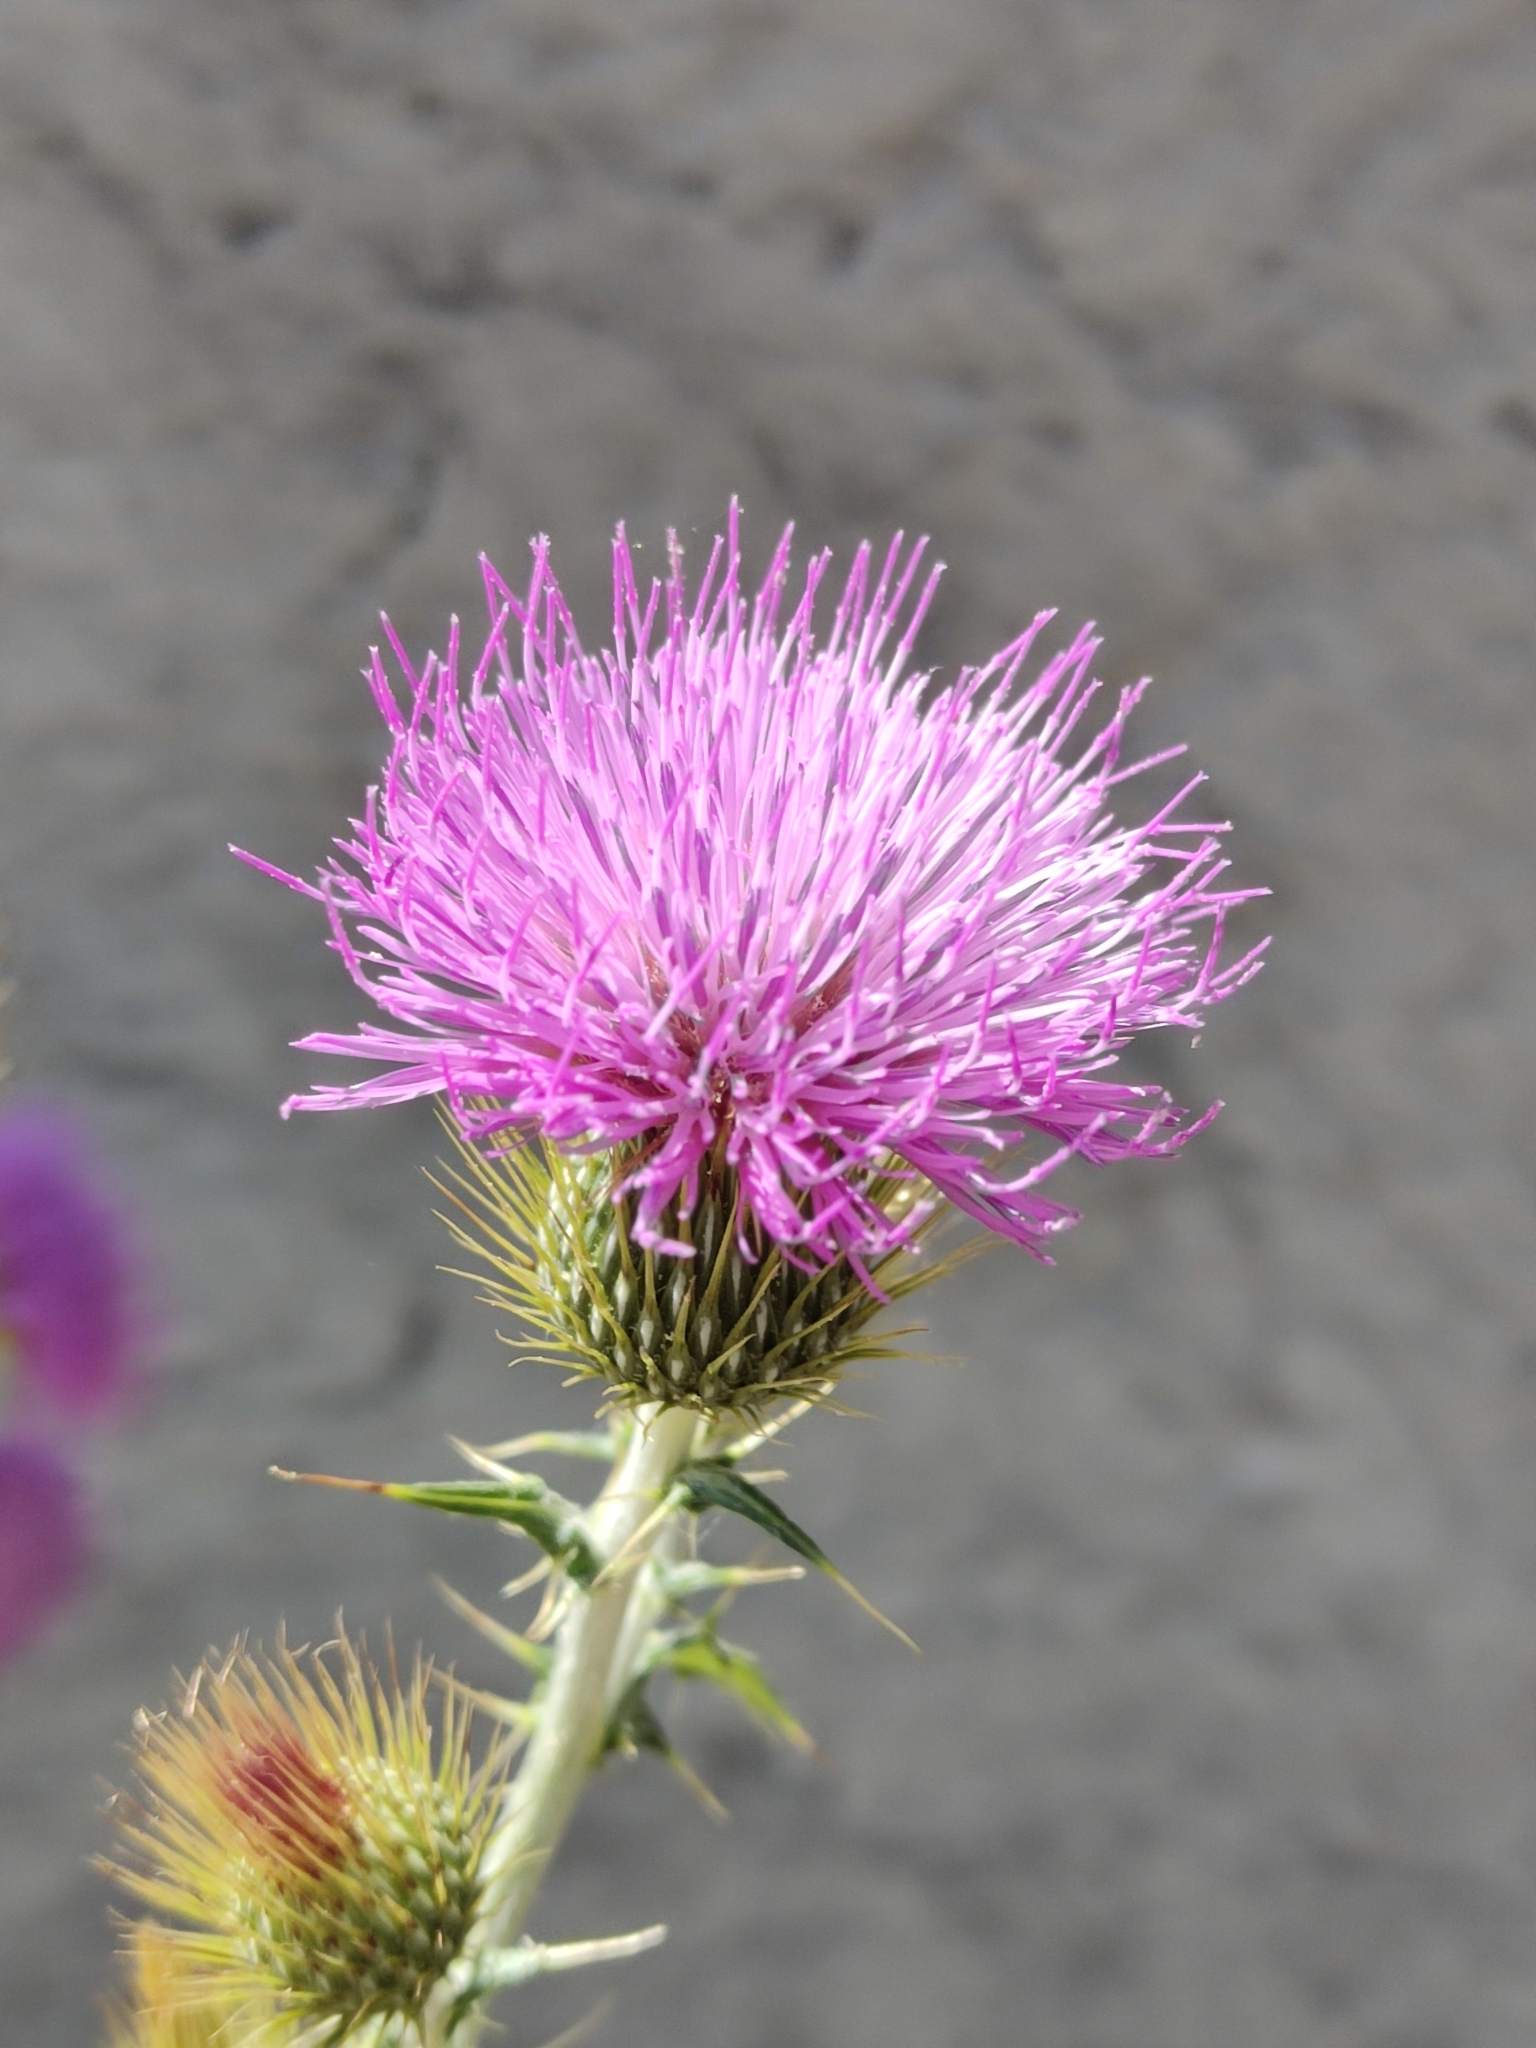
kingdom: Plantae
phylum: Tracheophyta
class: Magnoliopsida
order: Asterales
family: Asteraceae
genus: Cirsium
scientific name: Cirsium rhaphilepis
